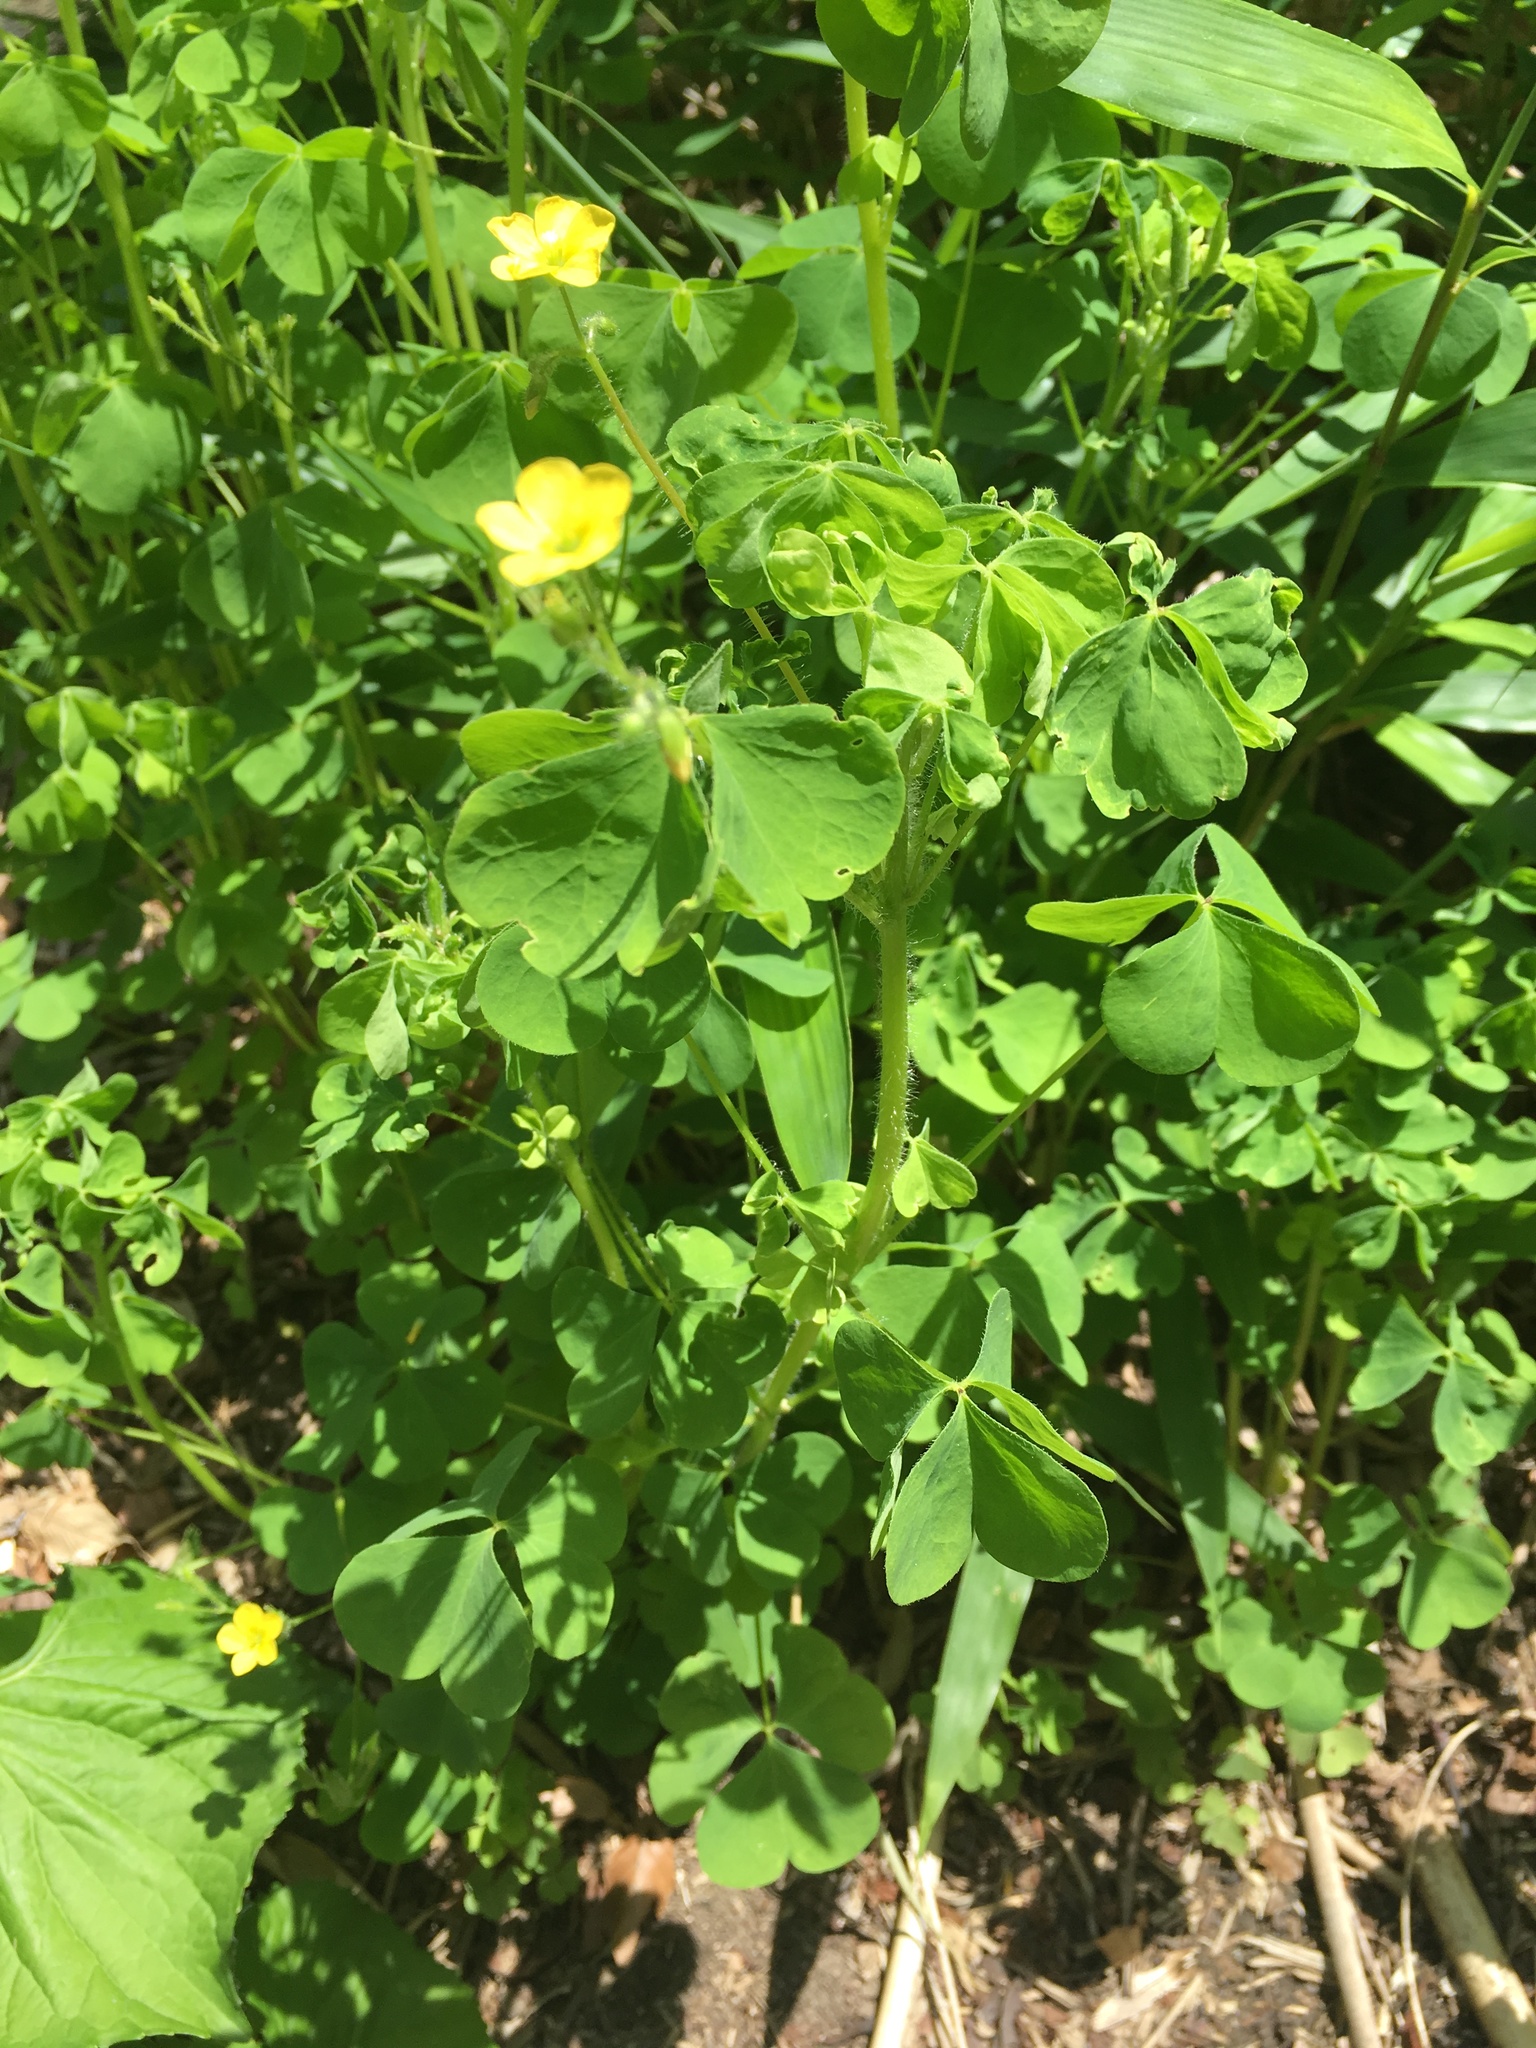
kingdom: Plantae
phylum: Tracheophyta
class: Magnoliopsida
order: Oxalidales
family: Oxalidaceae
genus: Oxalis
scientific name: Oxalis stricta
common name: Upright yellow-sorrel
